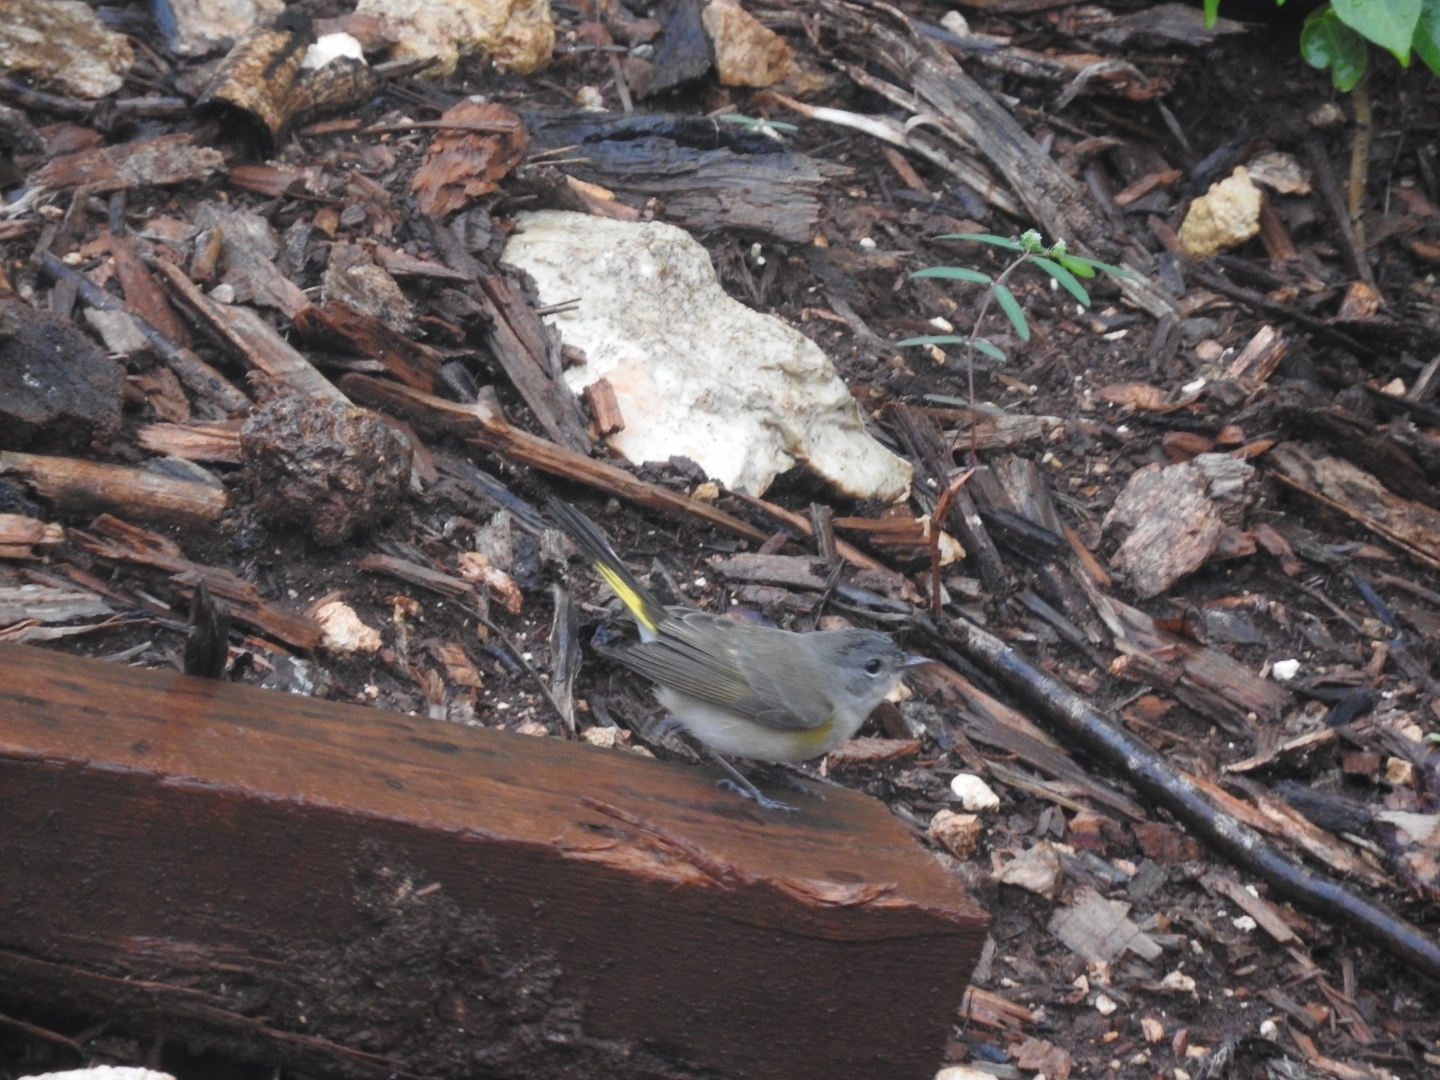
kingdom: Animalia
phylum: Chordata
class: Aves
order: Passeriformes
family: Parulidae
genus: Setophaga
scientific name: Setophaga ruticilla
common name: American redstart
